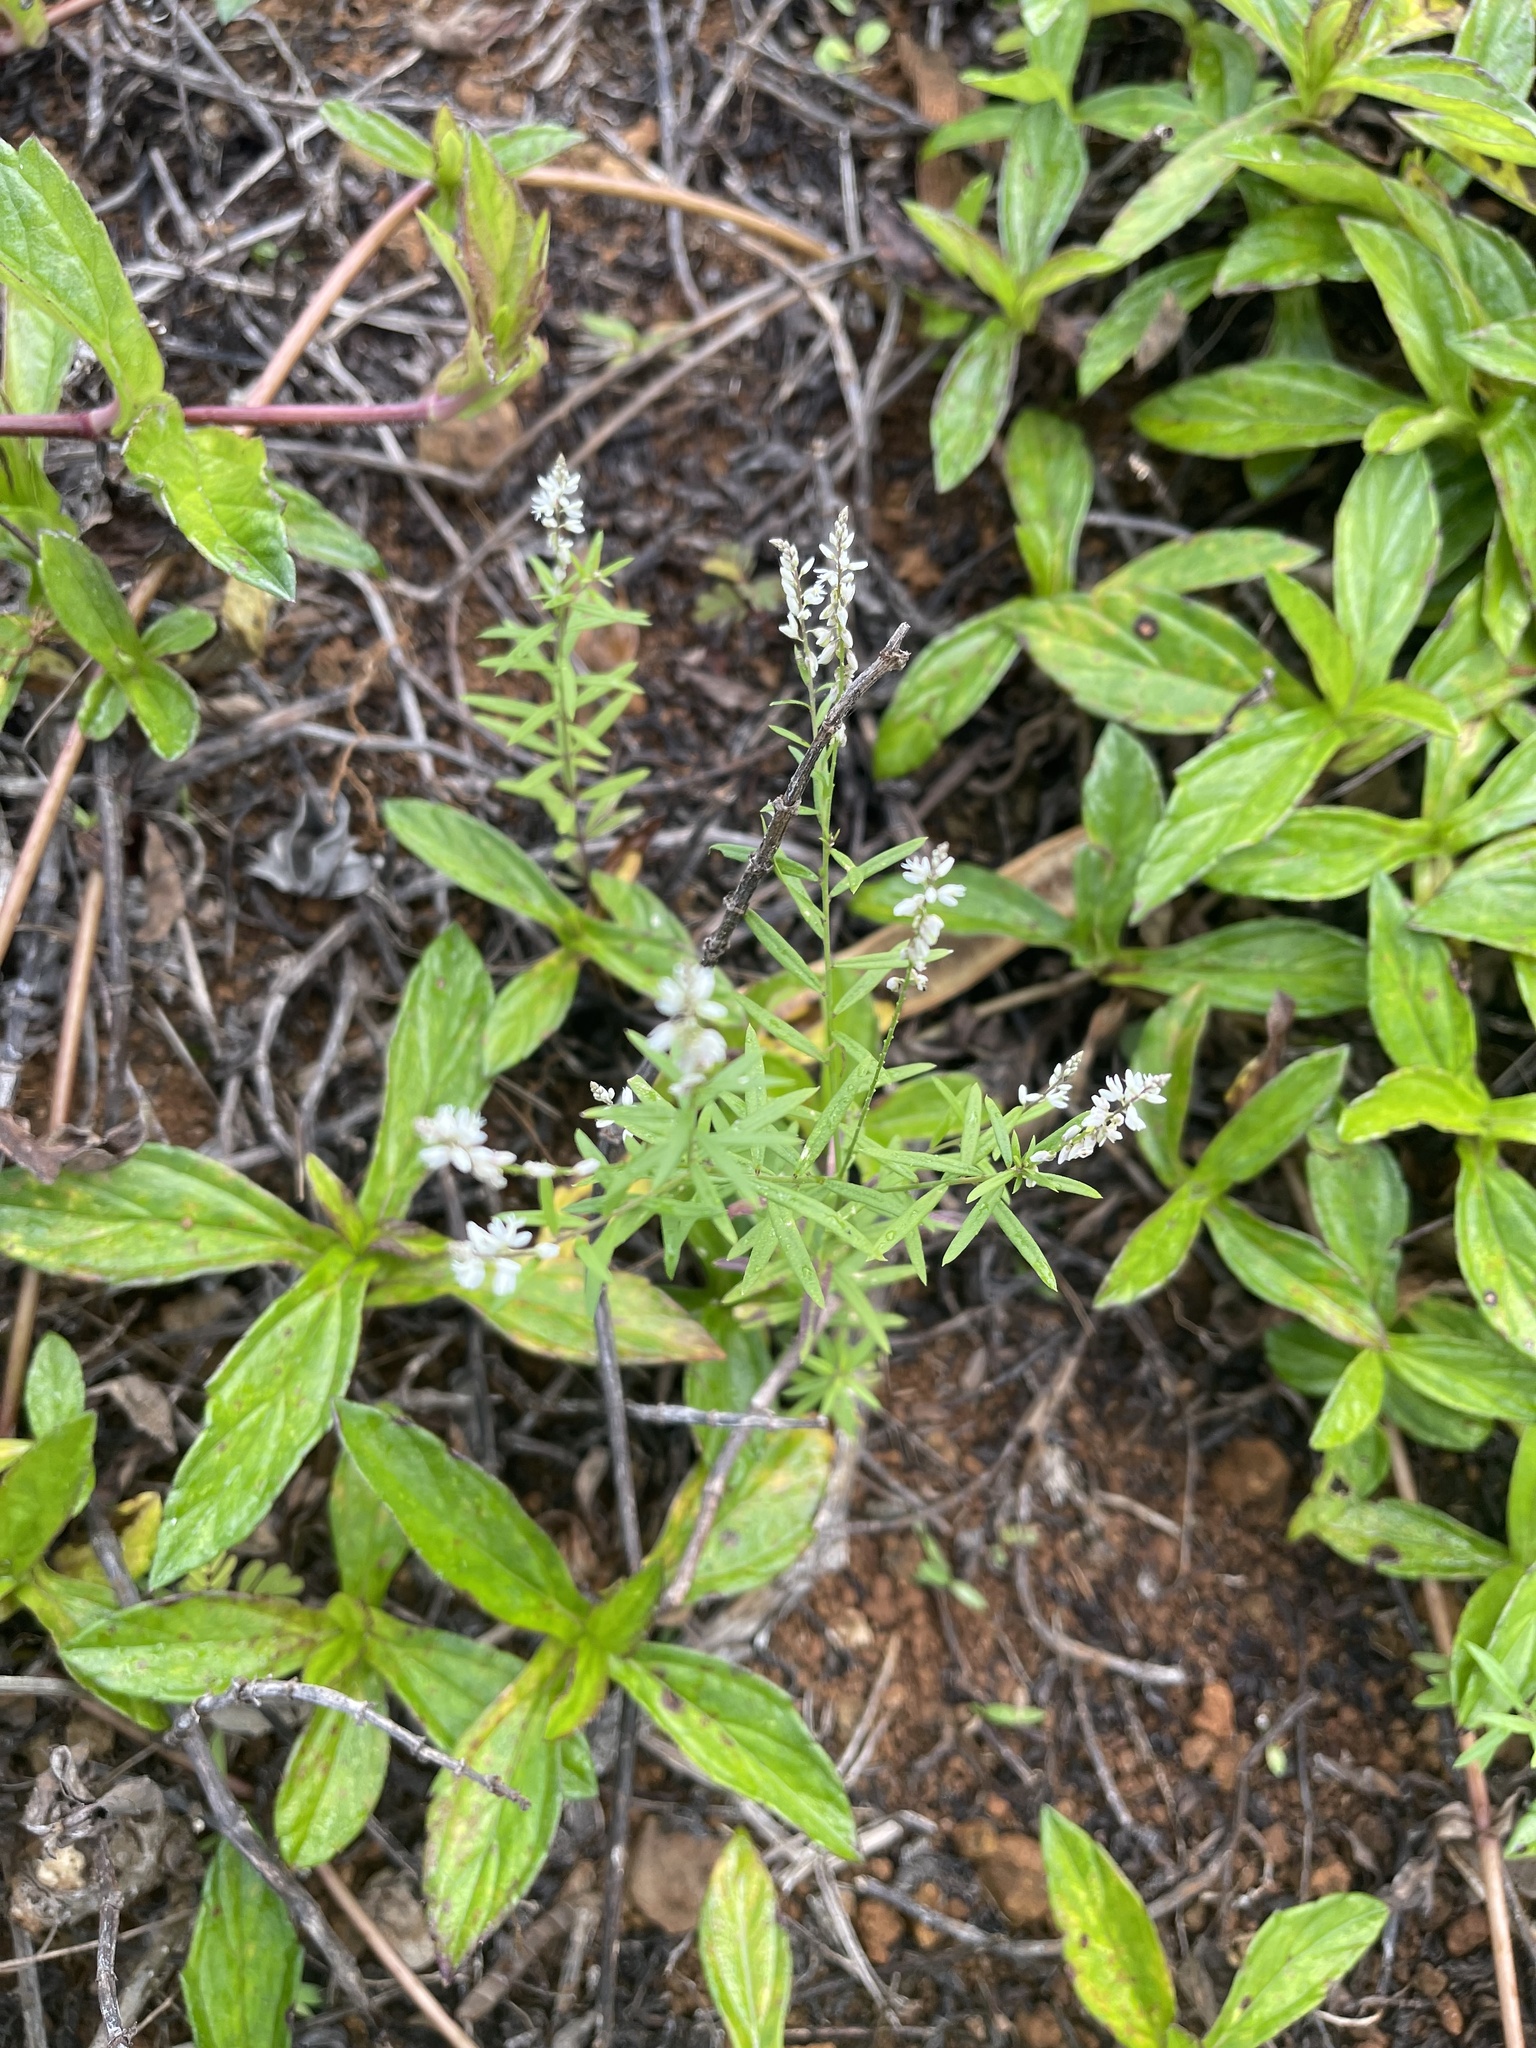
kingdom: Plantae
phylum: Tracheophyta
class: Magnoliopsida
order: Fabales
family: Polygalaceae
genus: Polygala
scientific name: Polygala paniculata
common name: Orosne
